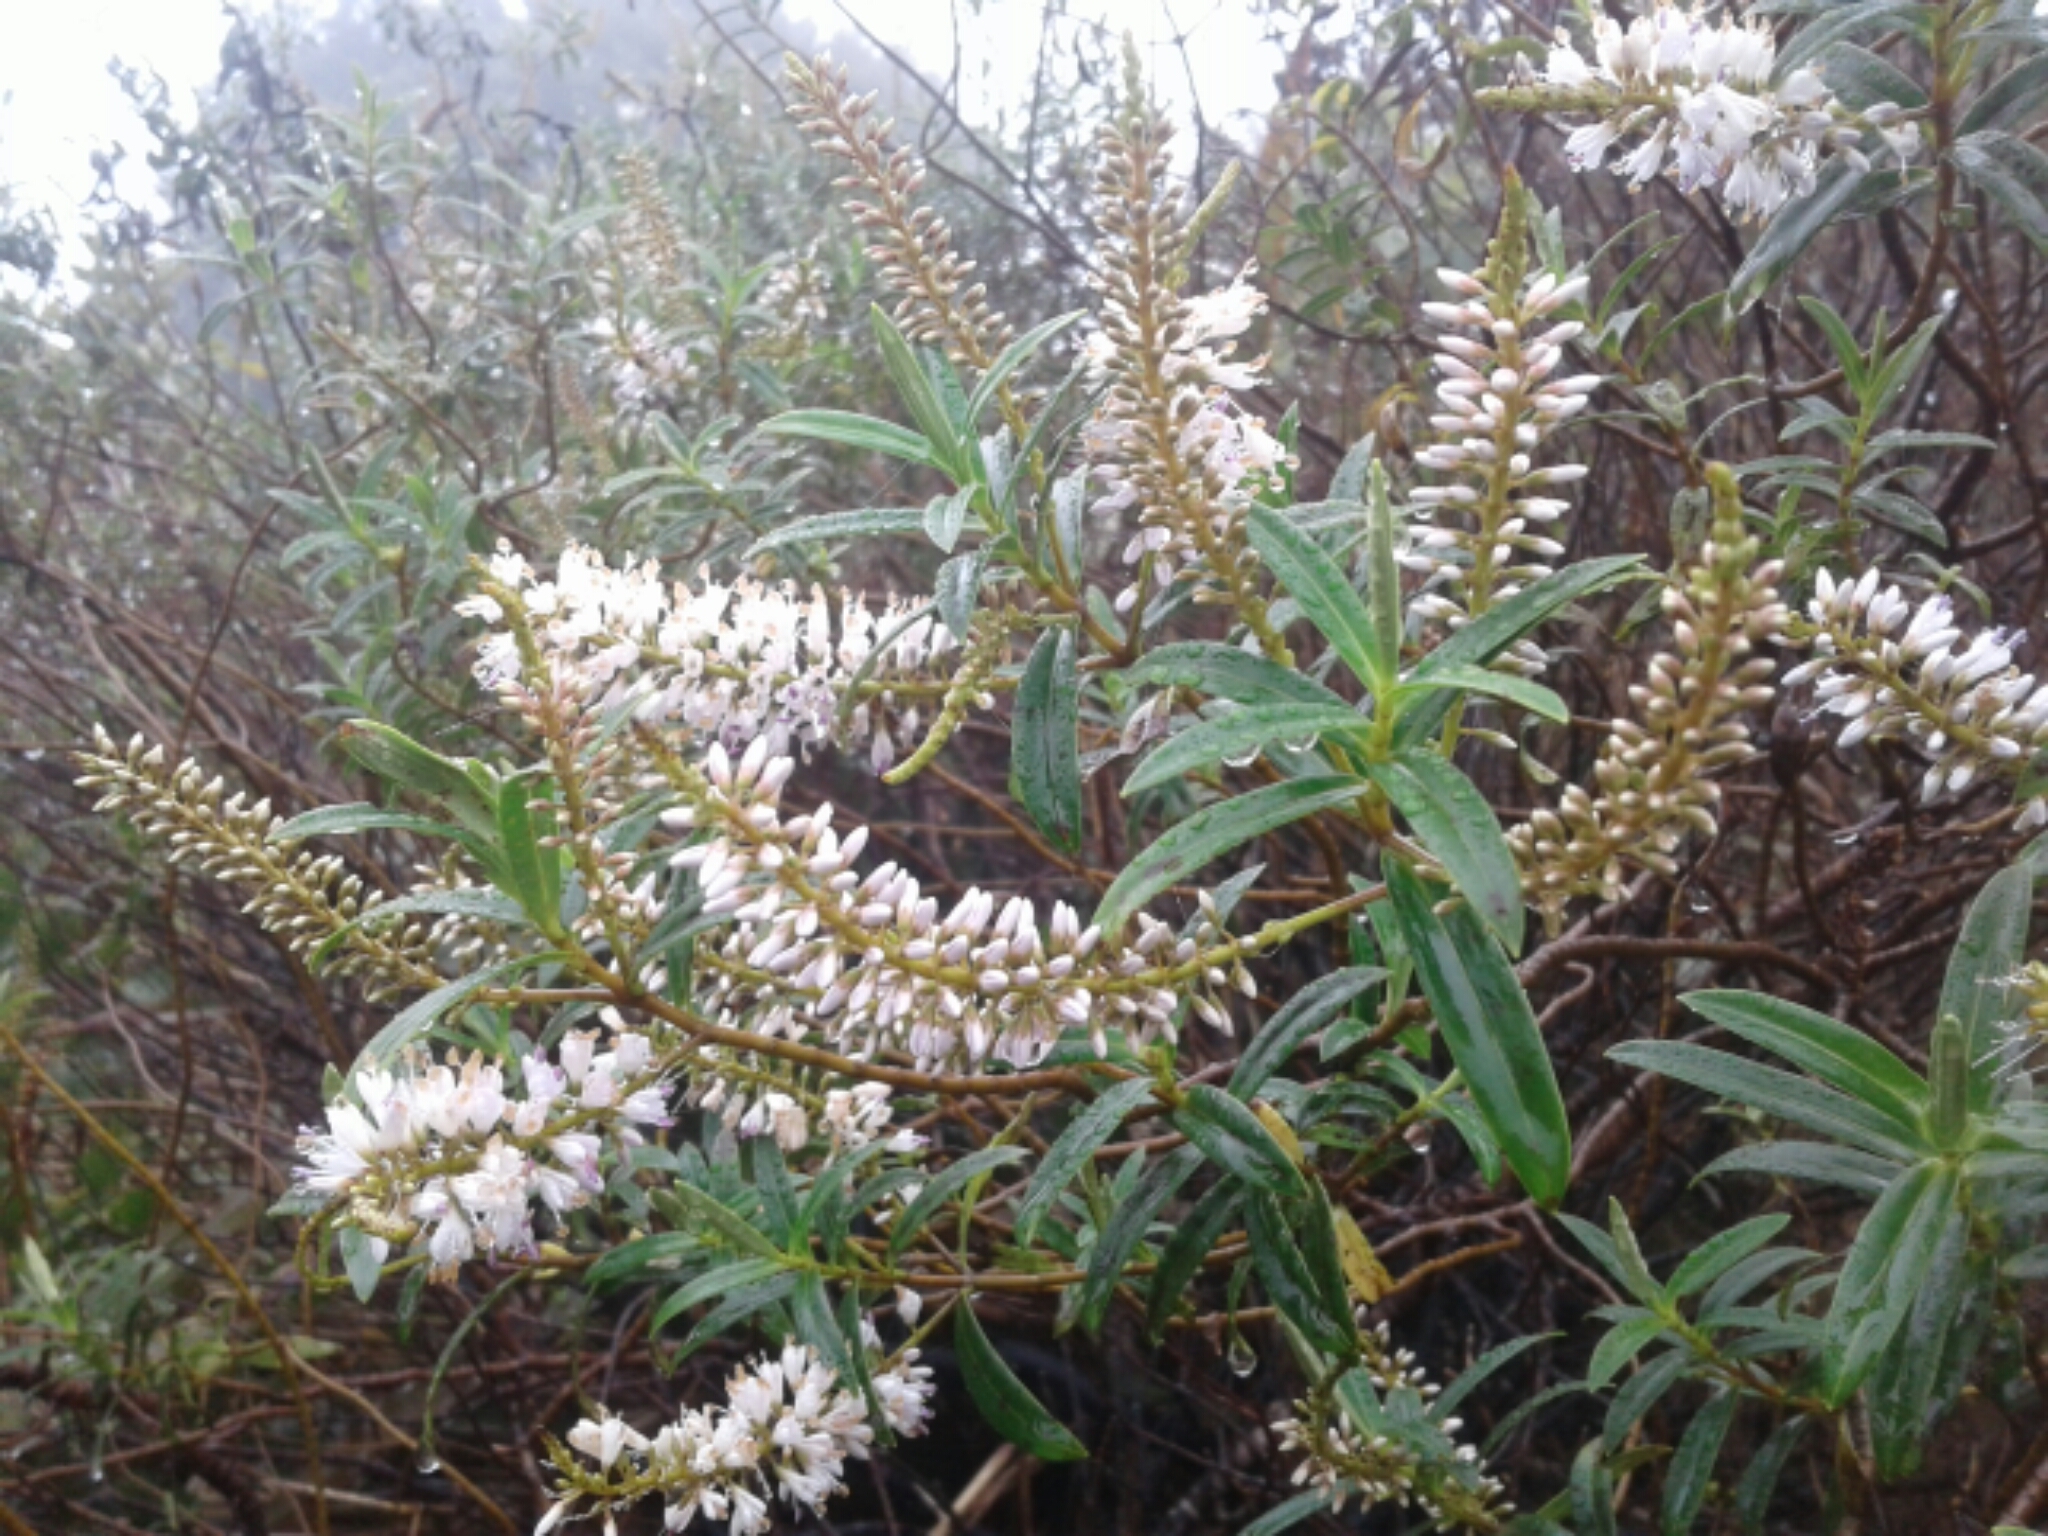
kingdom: Plantae
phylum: Tracheophyta
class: Magnoliopsida
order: Lamiales
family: Plantaginaceae
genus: Veronica
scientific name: Veronica
